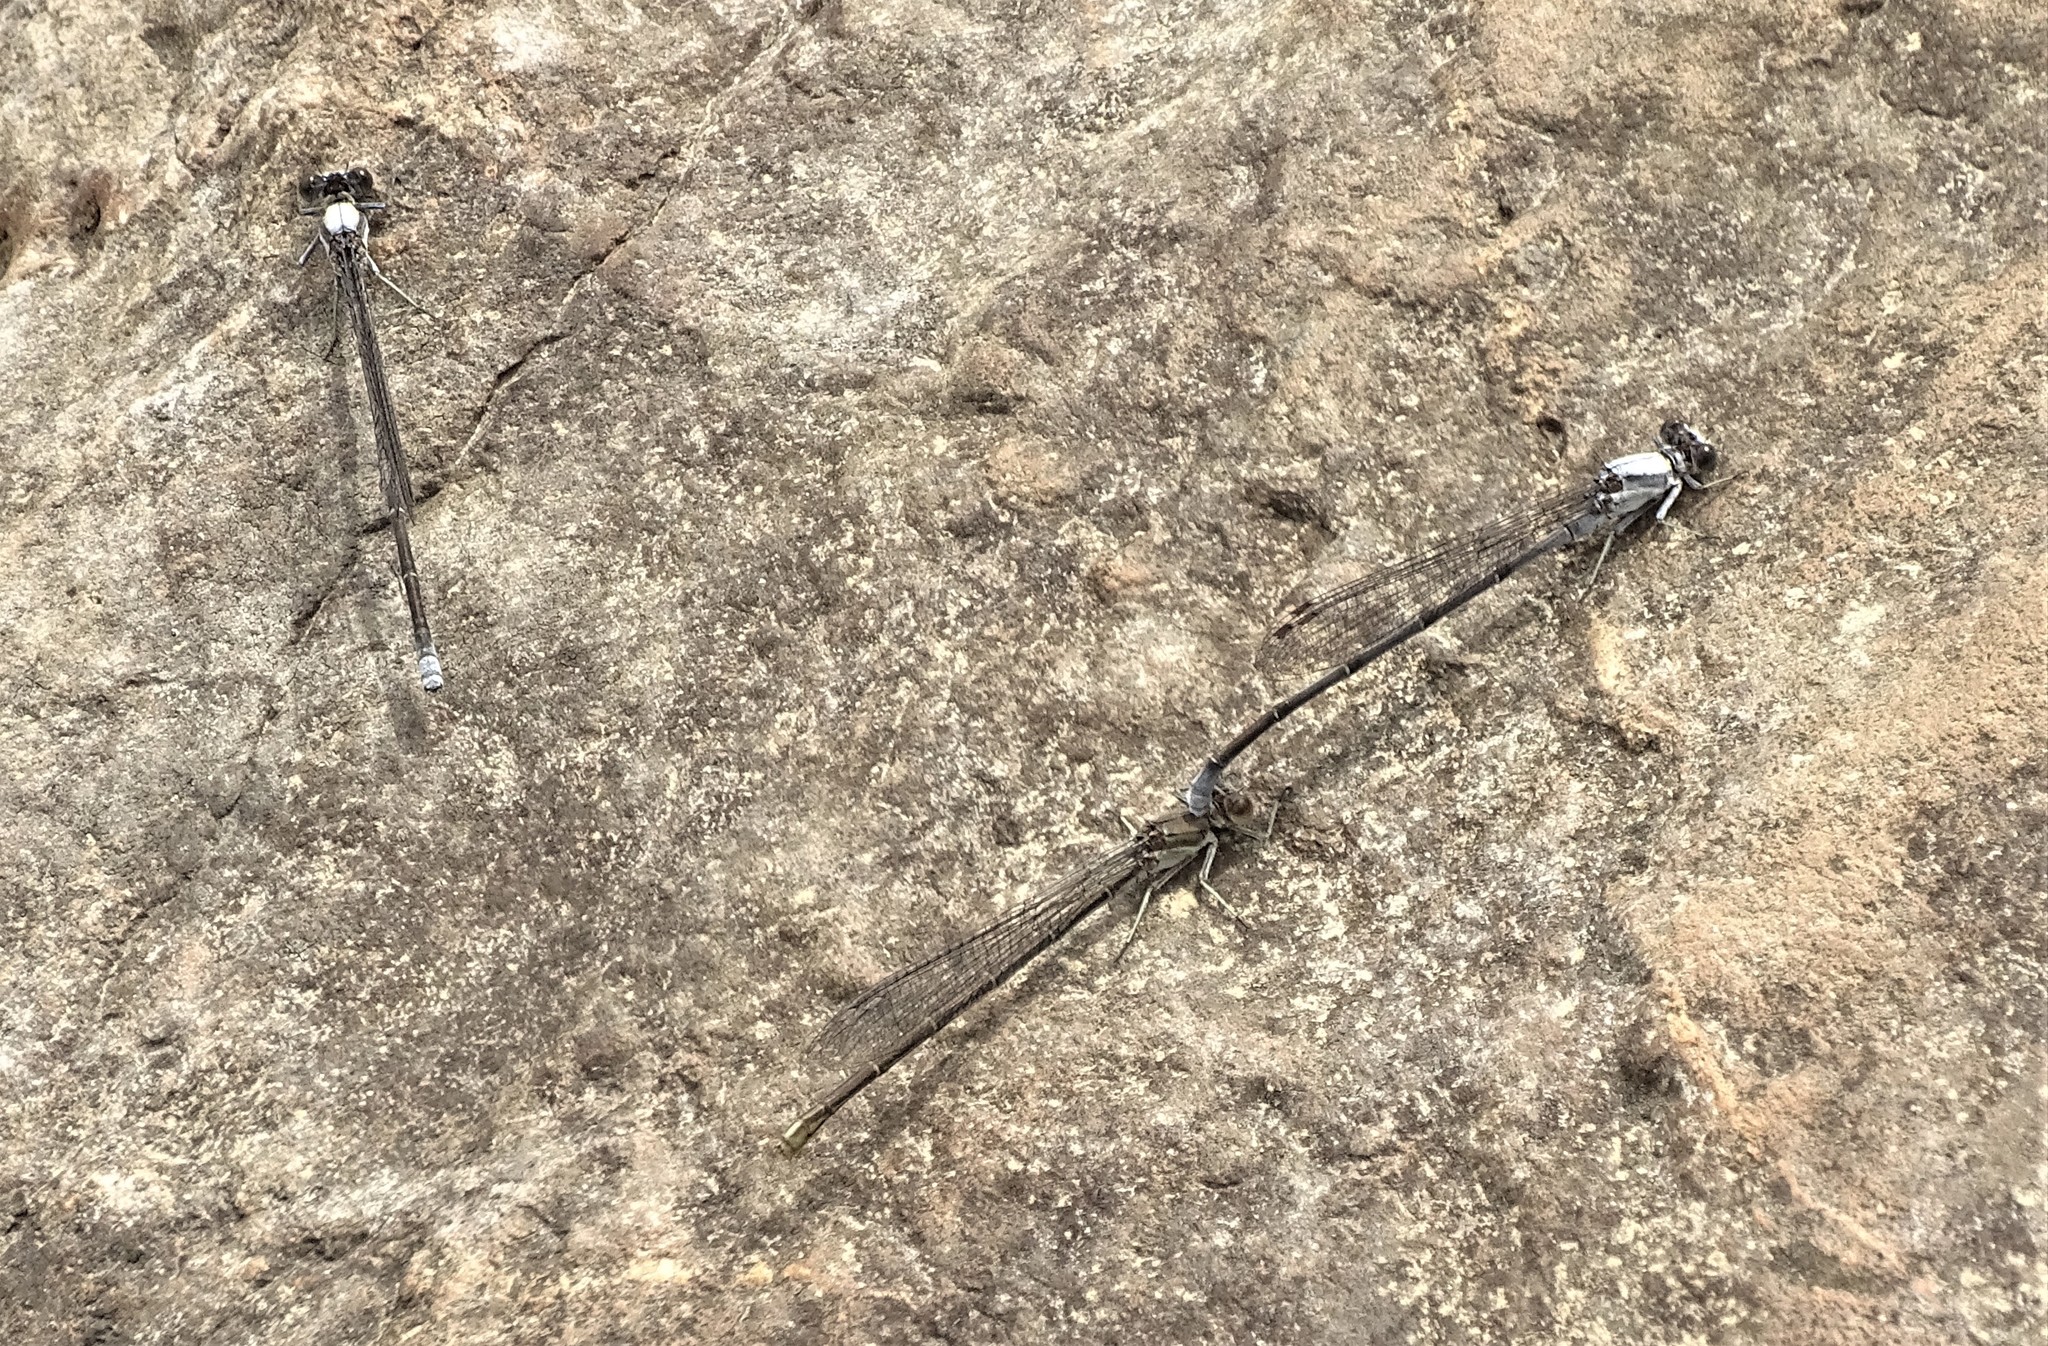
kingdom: Animalia
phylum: Arthropoda
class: Insecta
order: Odonata
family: Coenagrionidae
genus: Argia
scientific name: Argia moesta
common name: Powdered dancer
